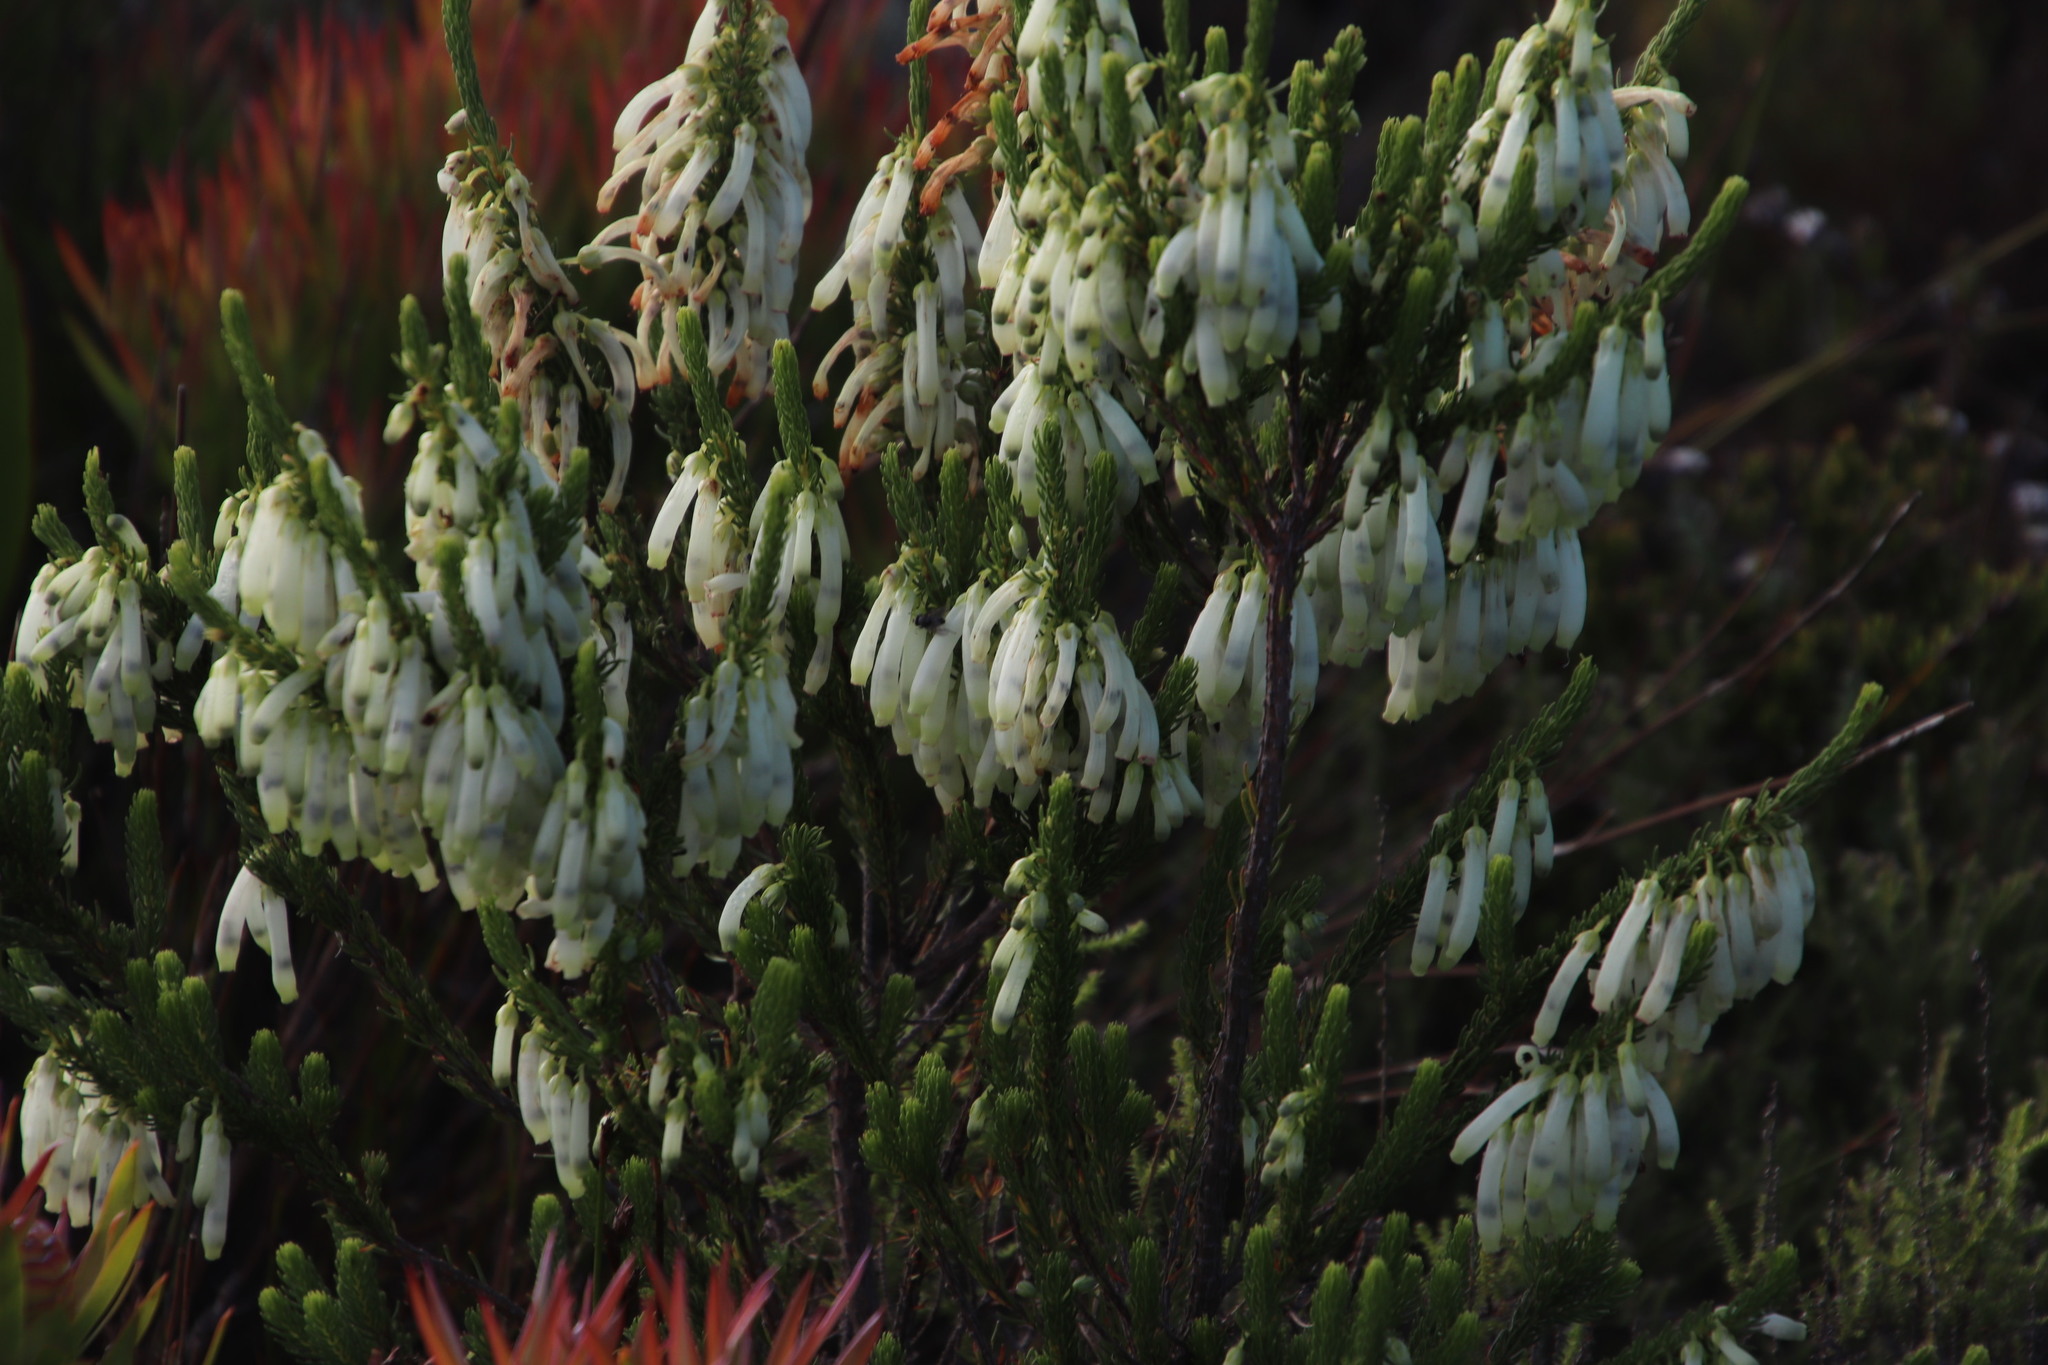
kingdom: Plantae
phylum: Tracheophyta
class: Magnoliopsida
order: Ericales
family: Ericaceae
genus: Erica
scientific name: Erica mammosa
